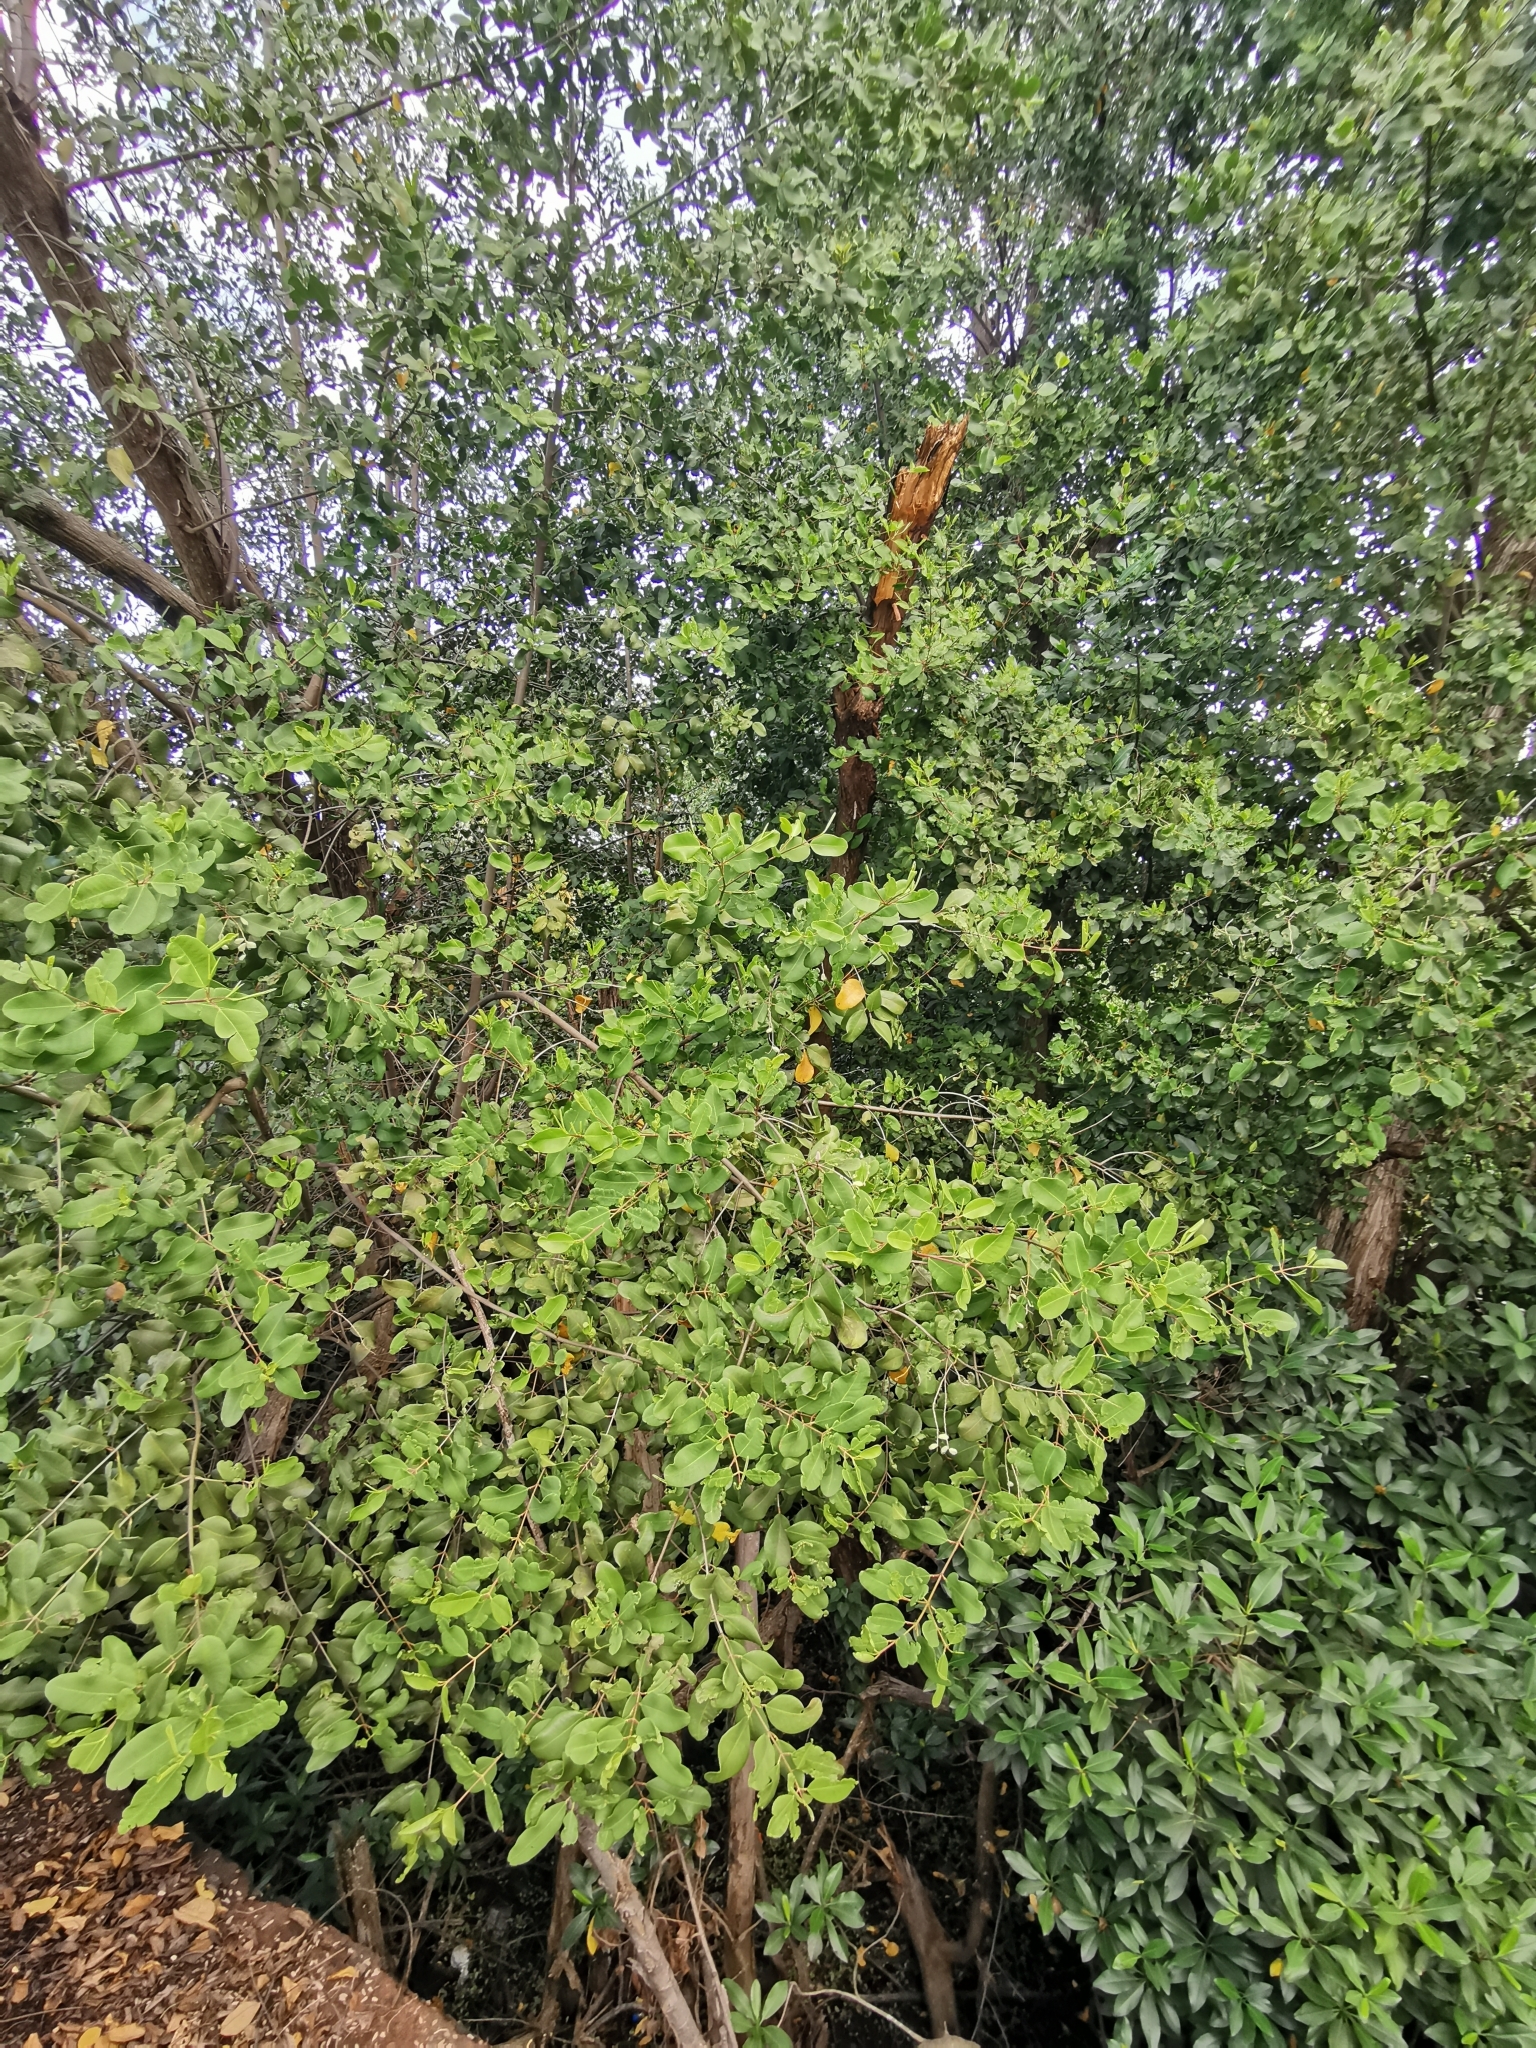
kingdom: Plantae
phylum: Tracheophyta
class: Magnoliopsida
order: Myrtales
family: Combretaceae
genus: Laguncularia
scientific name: Laguncularia racemosa
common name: White mangrove
